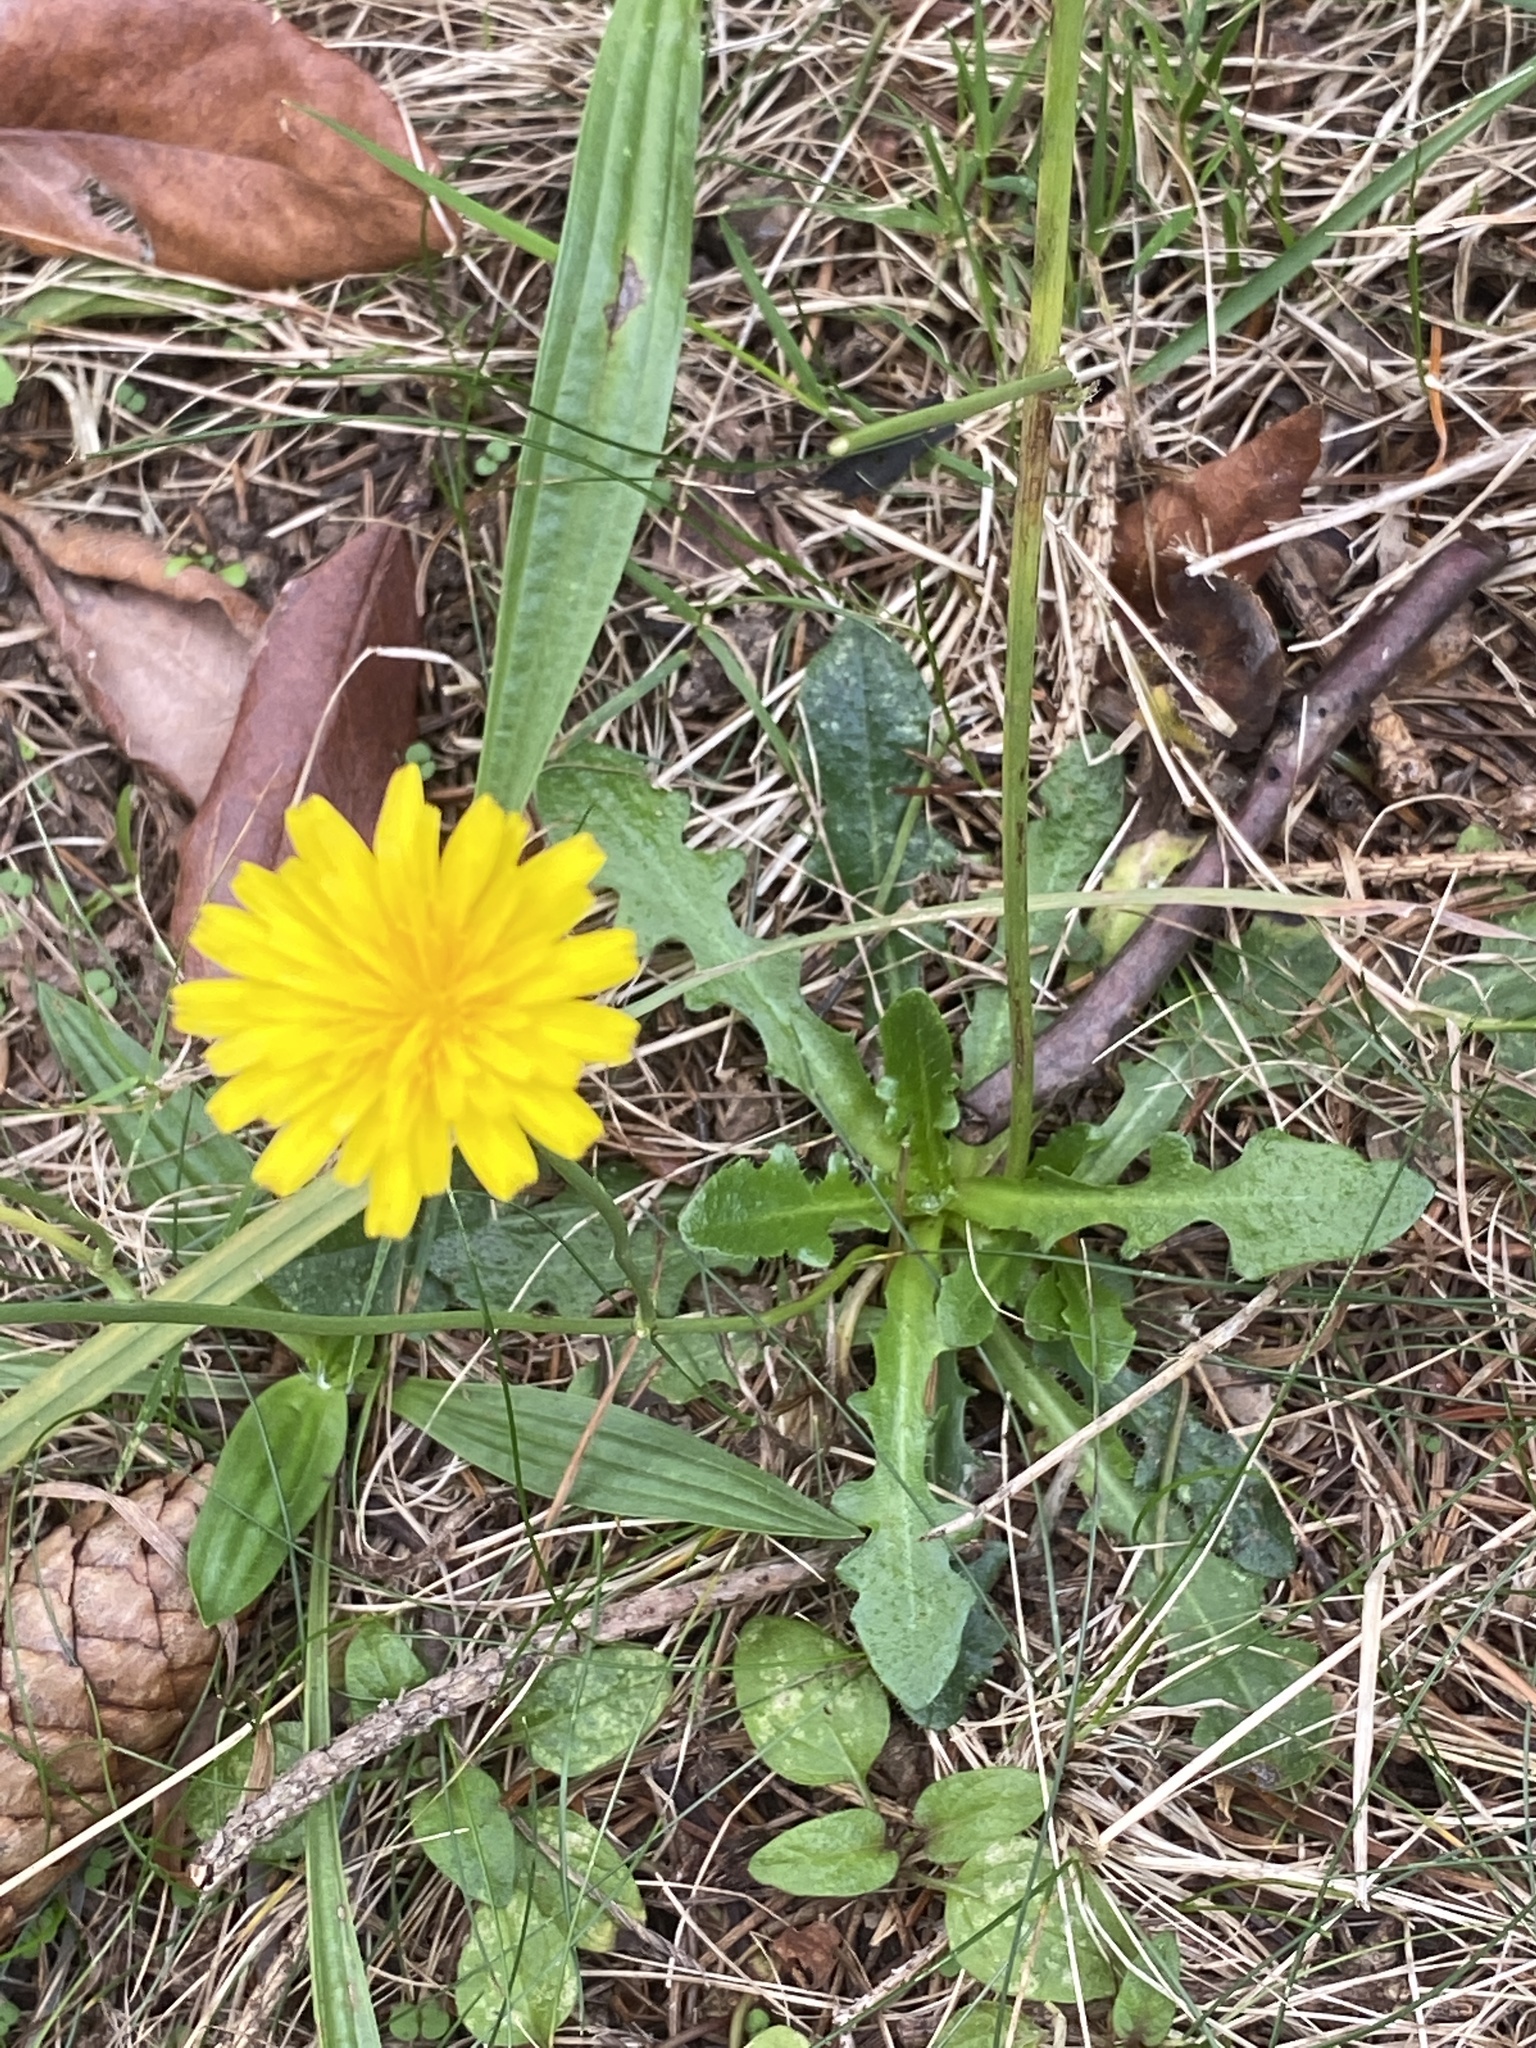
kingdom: Plantae
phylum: Tracheophyta
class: Magnoliopsida
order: Asterales
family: Asteraceae
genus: Hypochaeris
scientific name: Hypochaeris radicata
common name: Flatweed
